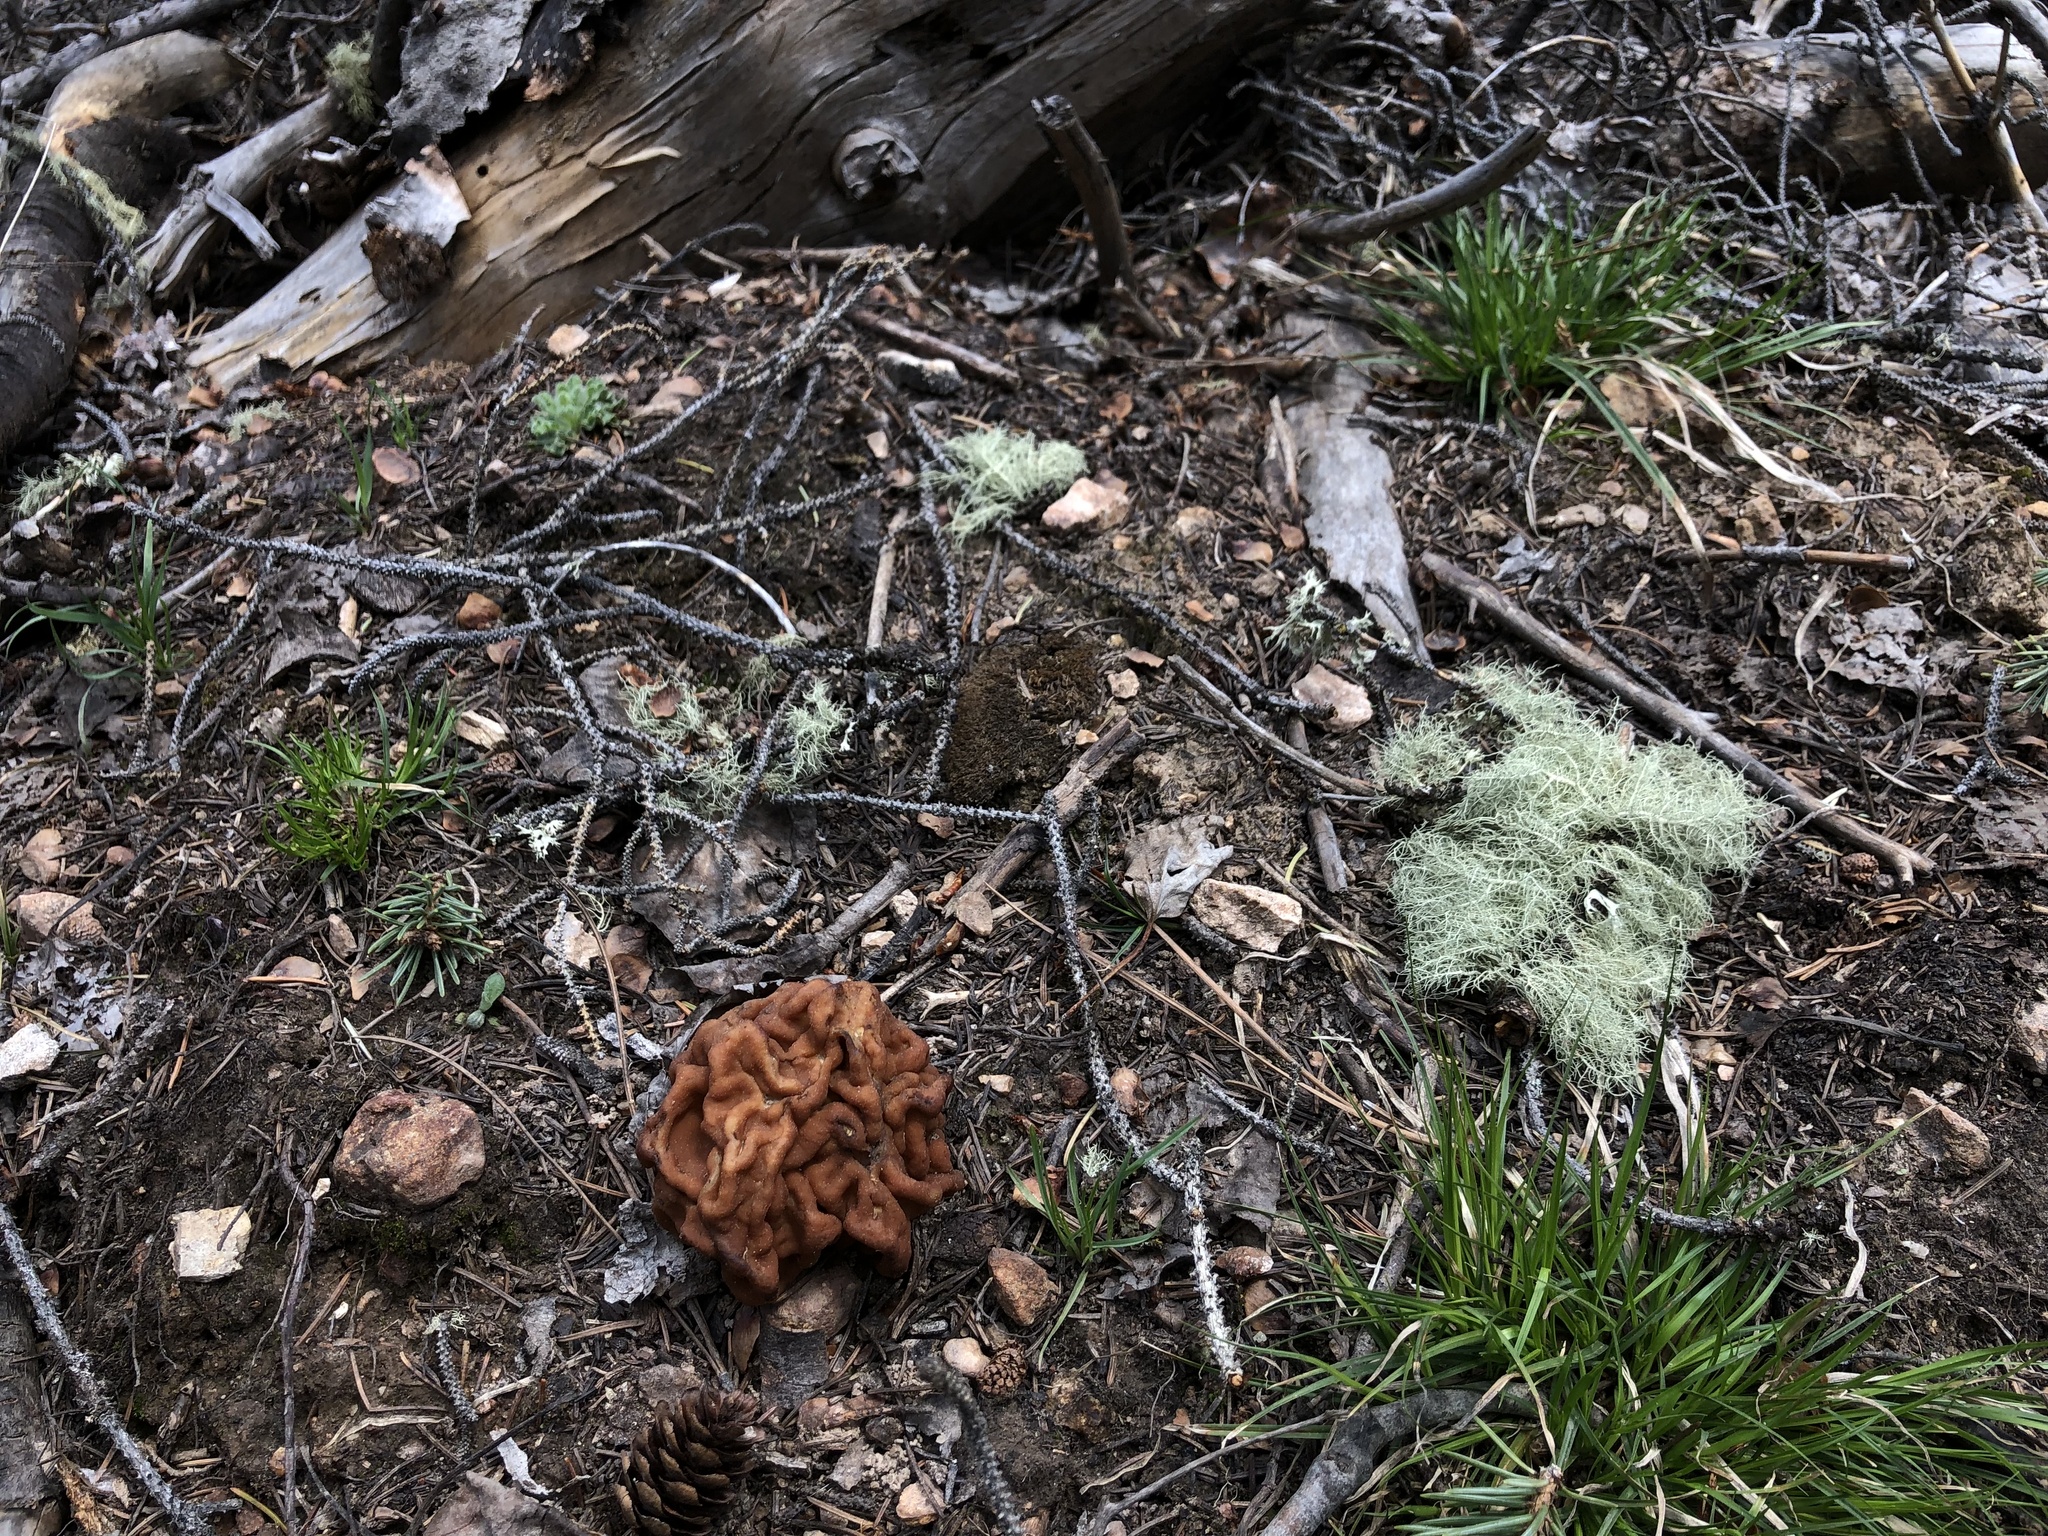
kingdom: Fungi
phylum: Ascomycota
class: Pezizomycetes
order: Pezizales
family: Discinaceae
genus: Discina
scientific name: Discina montana
